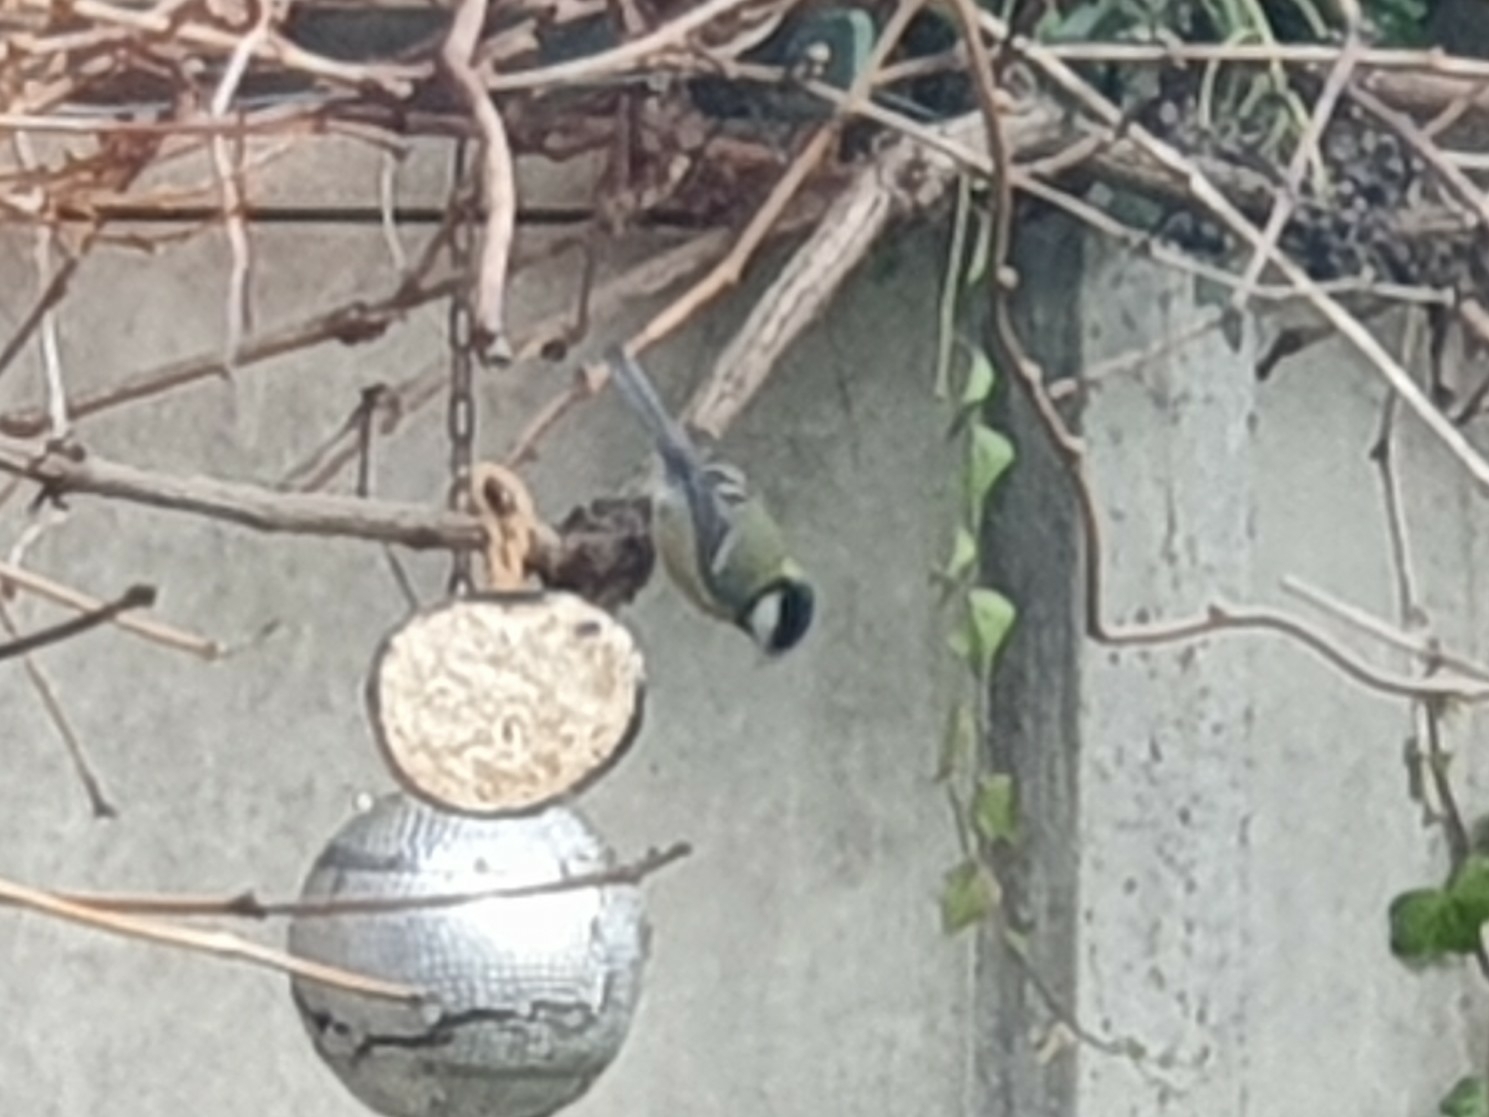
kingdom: Animalia
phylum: Chordata
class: Aves
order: Passeriformes
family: Paridae
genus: Parus
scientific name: Parus major
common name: Great tit
